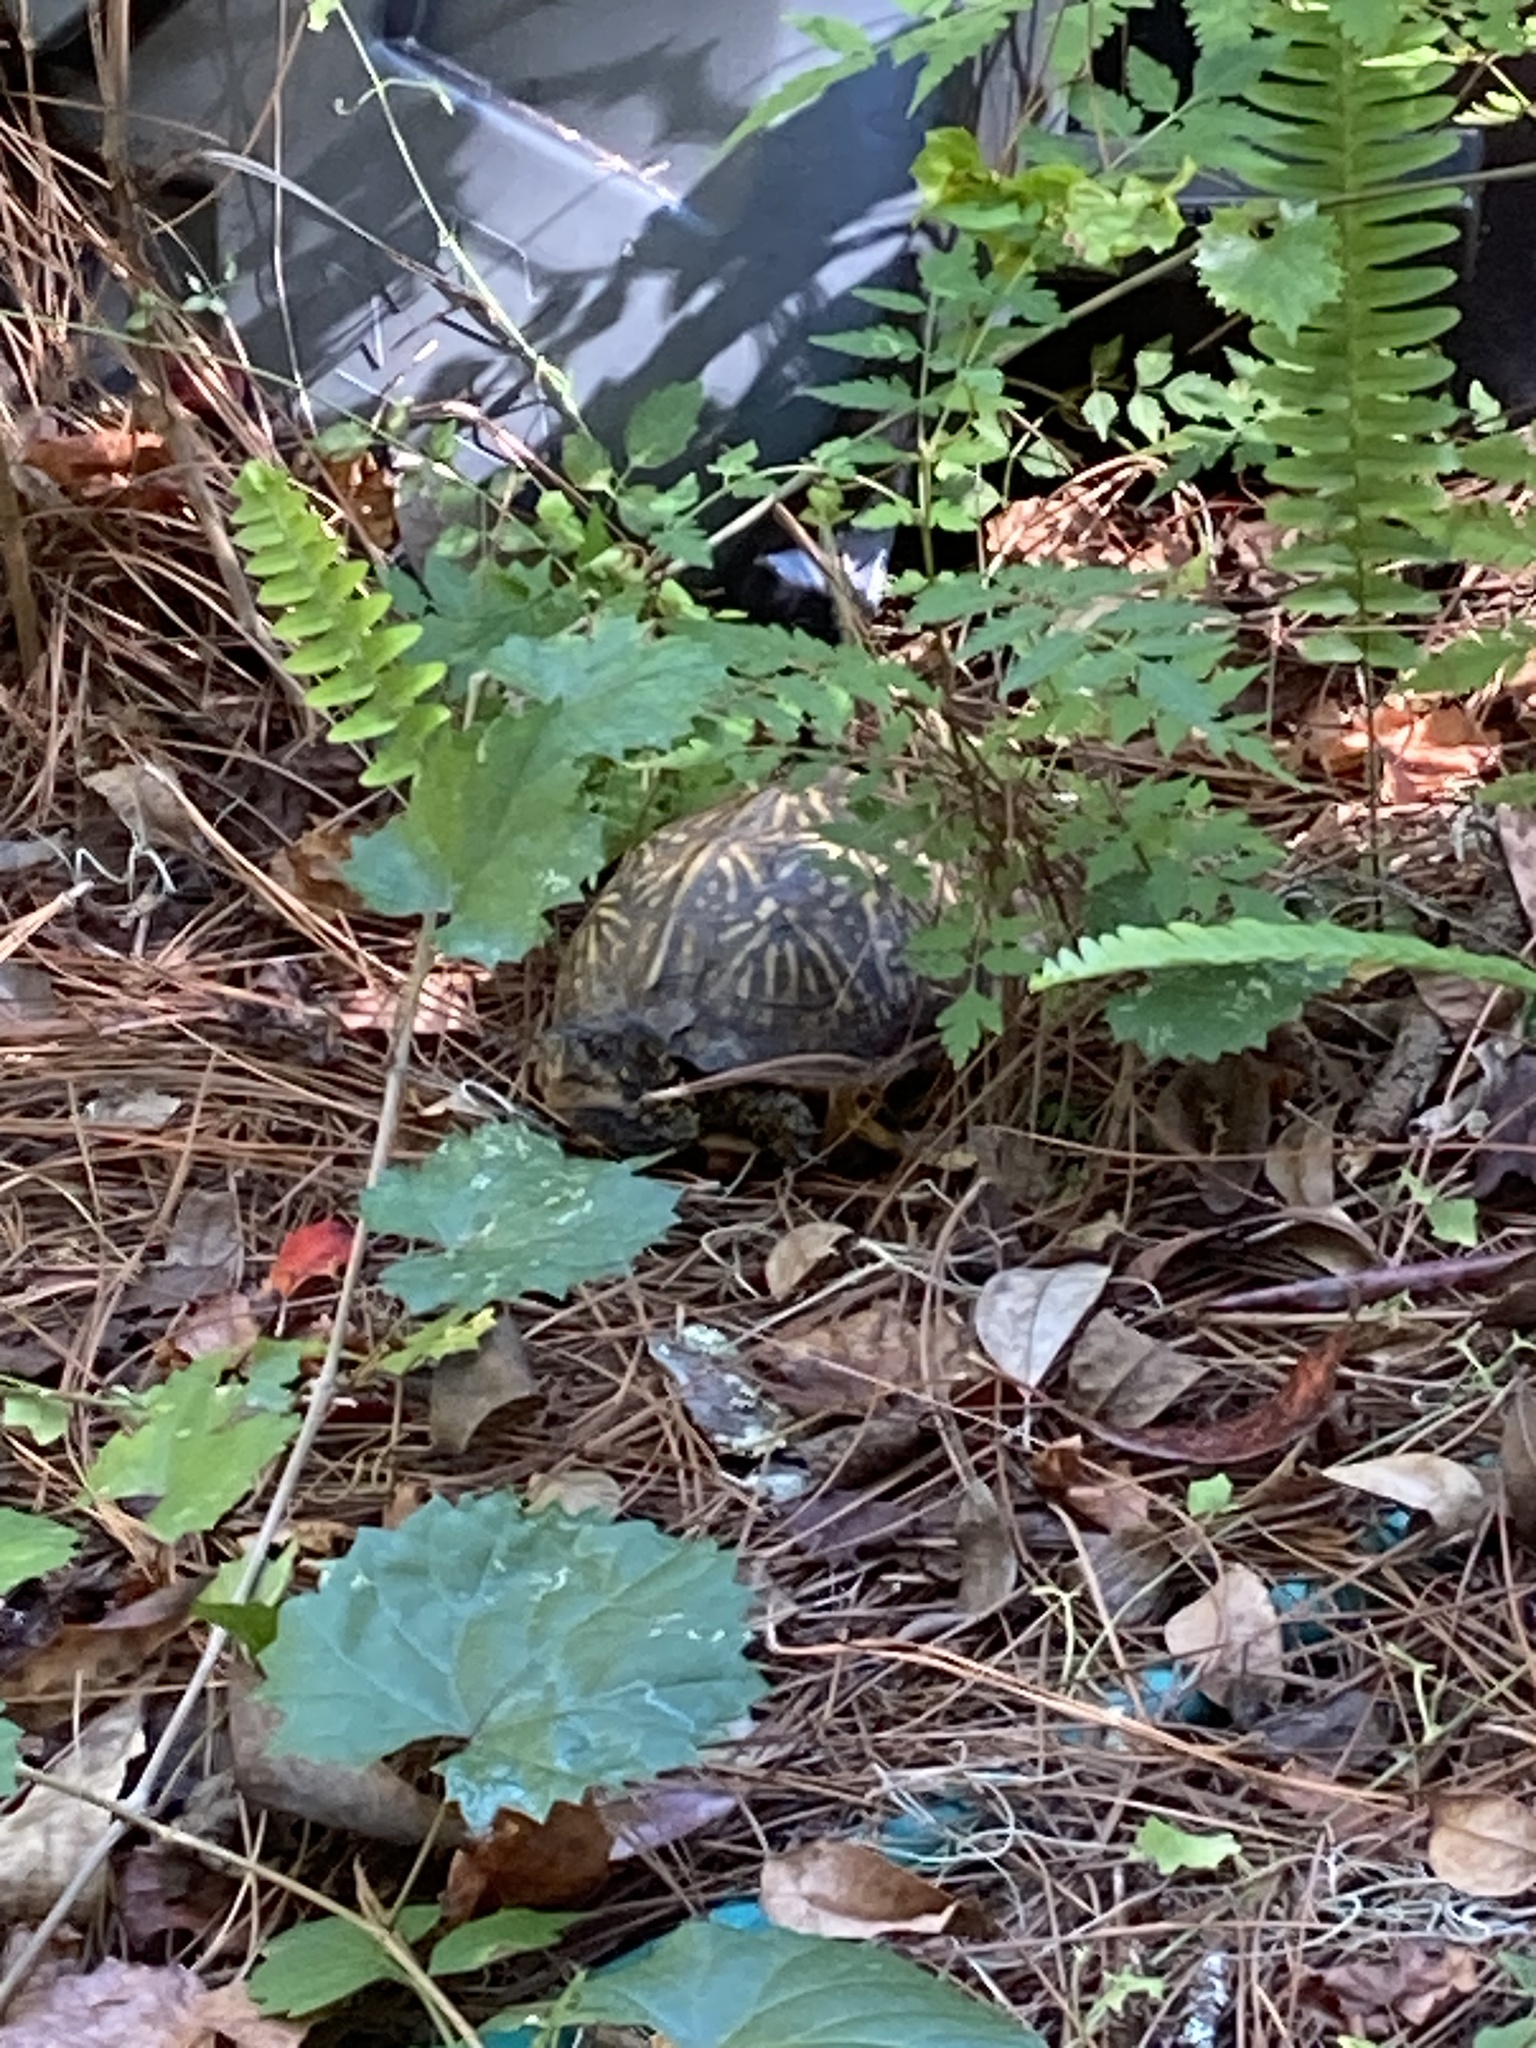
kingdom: Animalia
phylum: Chordata
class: Testudines
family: Emydidae
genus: Terrapene
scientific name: Terrapene carolina
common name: Common box turtle
